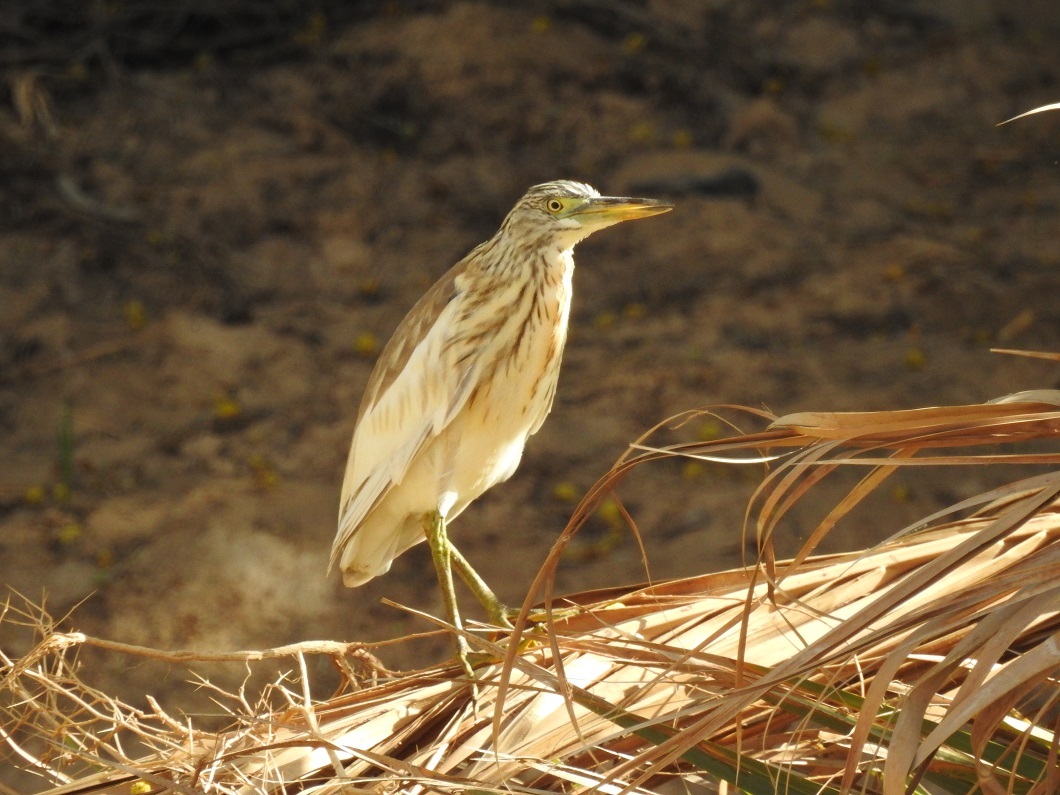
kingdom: Animalia
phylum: Chordata
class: Aves
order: Pelecaniformes
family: Ardeidae
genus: Ardeola
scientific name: Ardeola ralloides
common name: Squacco heron
